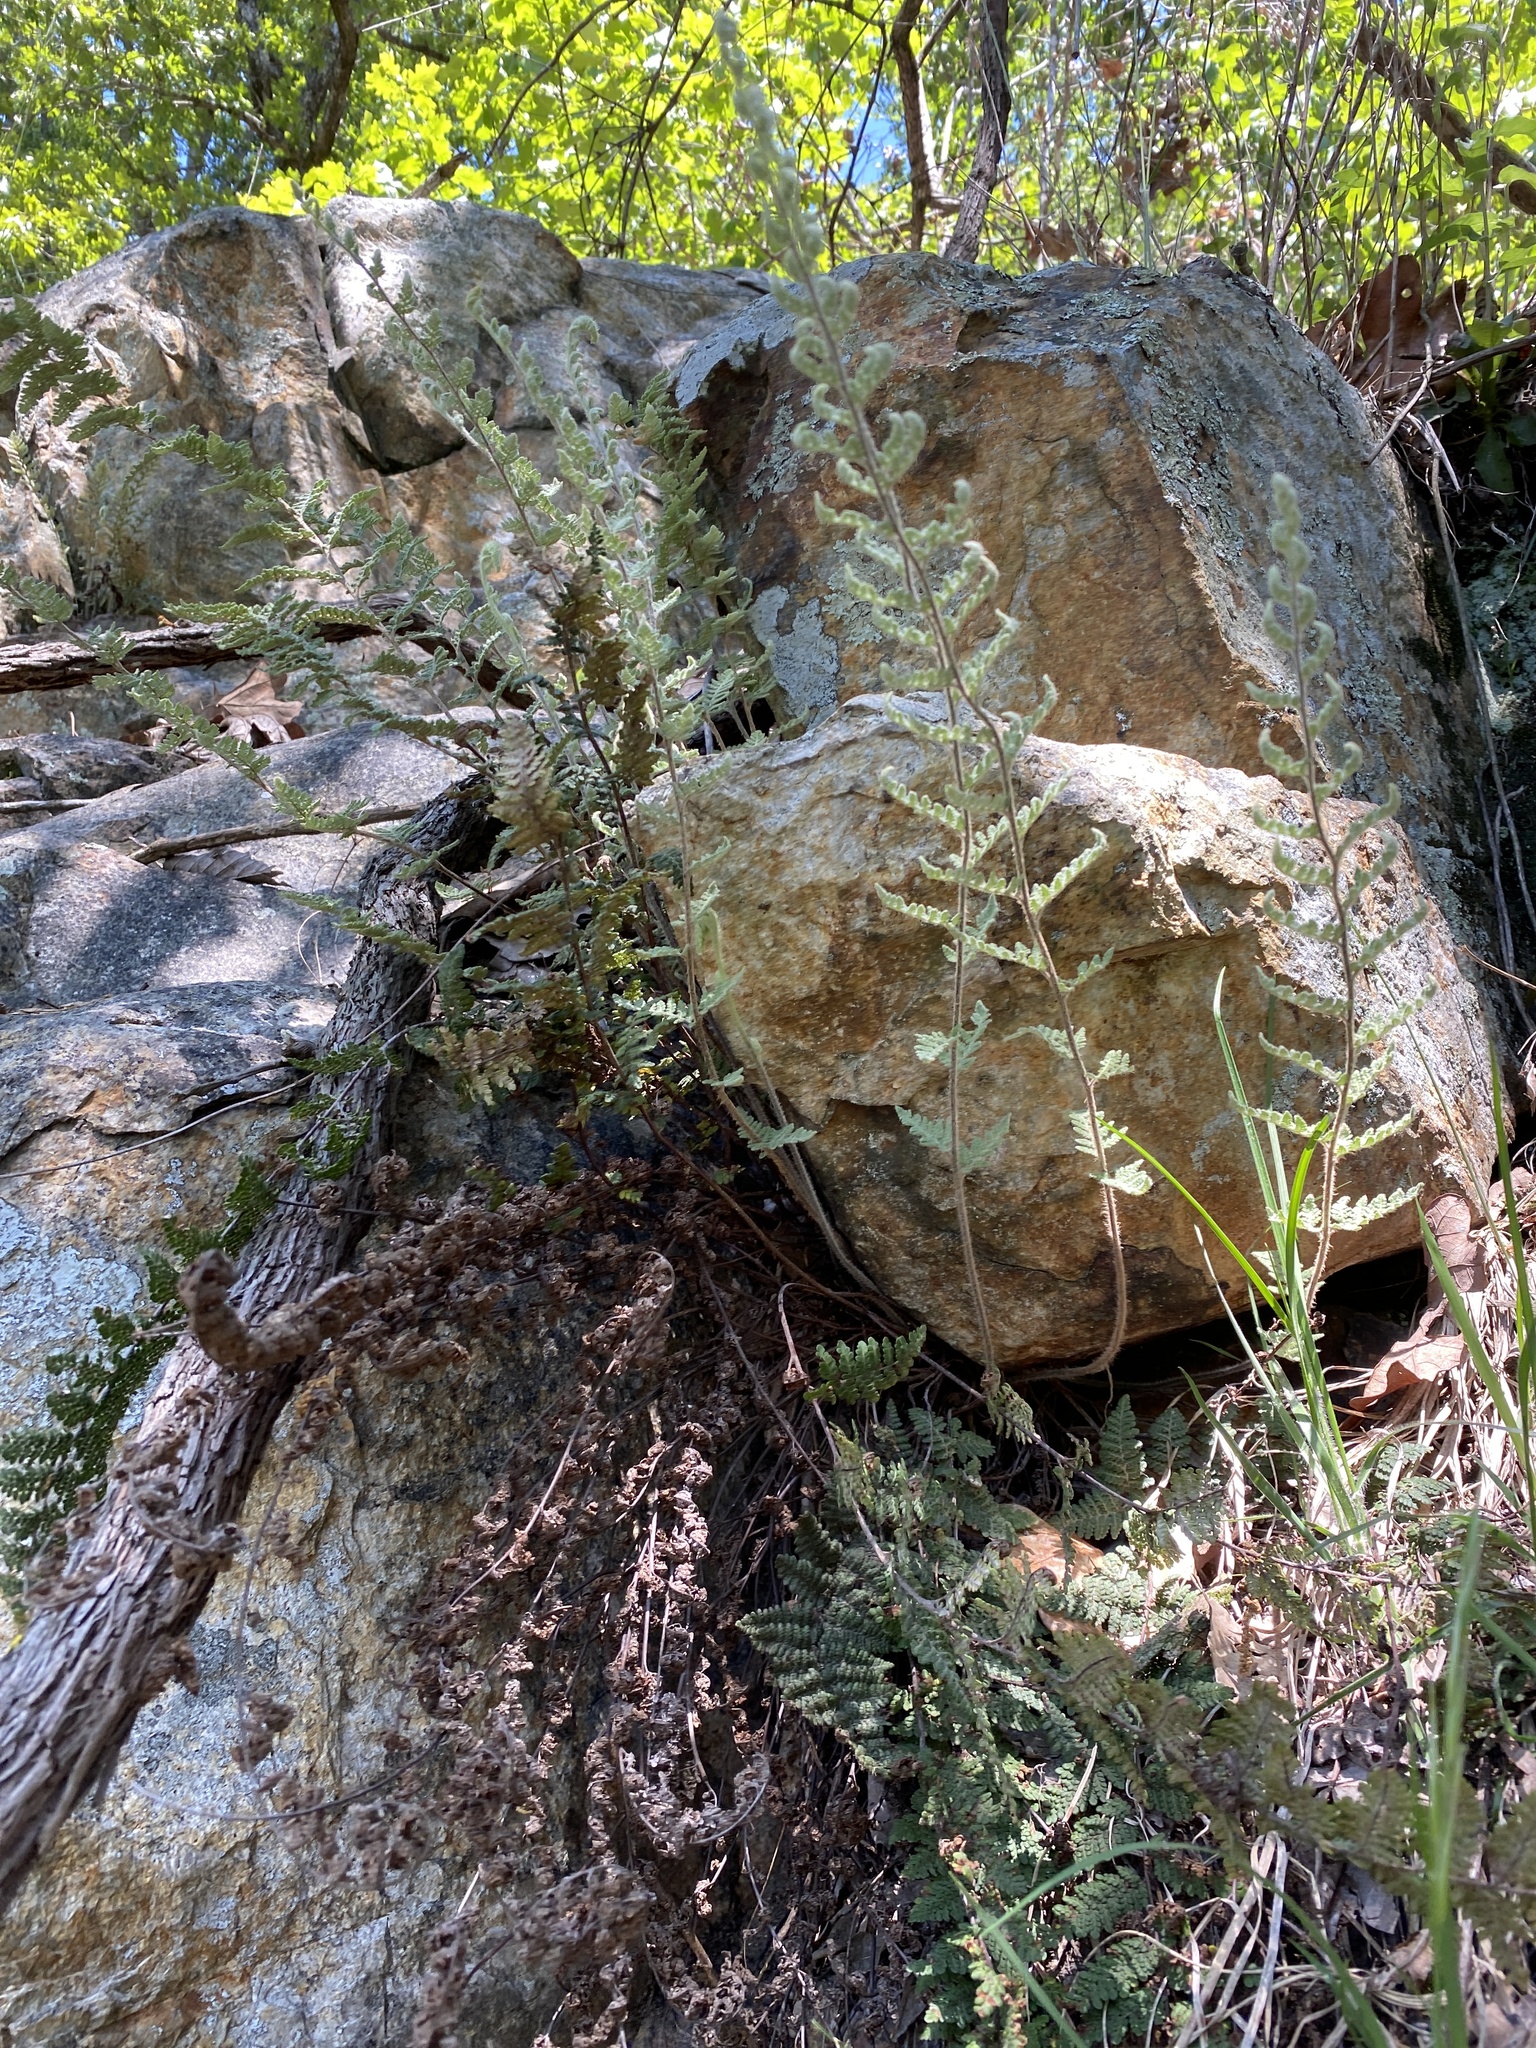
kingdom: Plantae
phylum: Tracheophyta
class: Polypodiopsida
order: Polypodiales
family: Pteridaceae
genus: Myriopteris
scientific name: Myriopteris tomentosa
